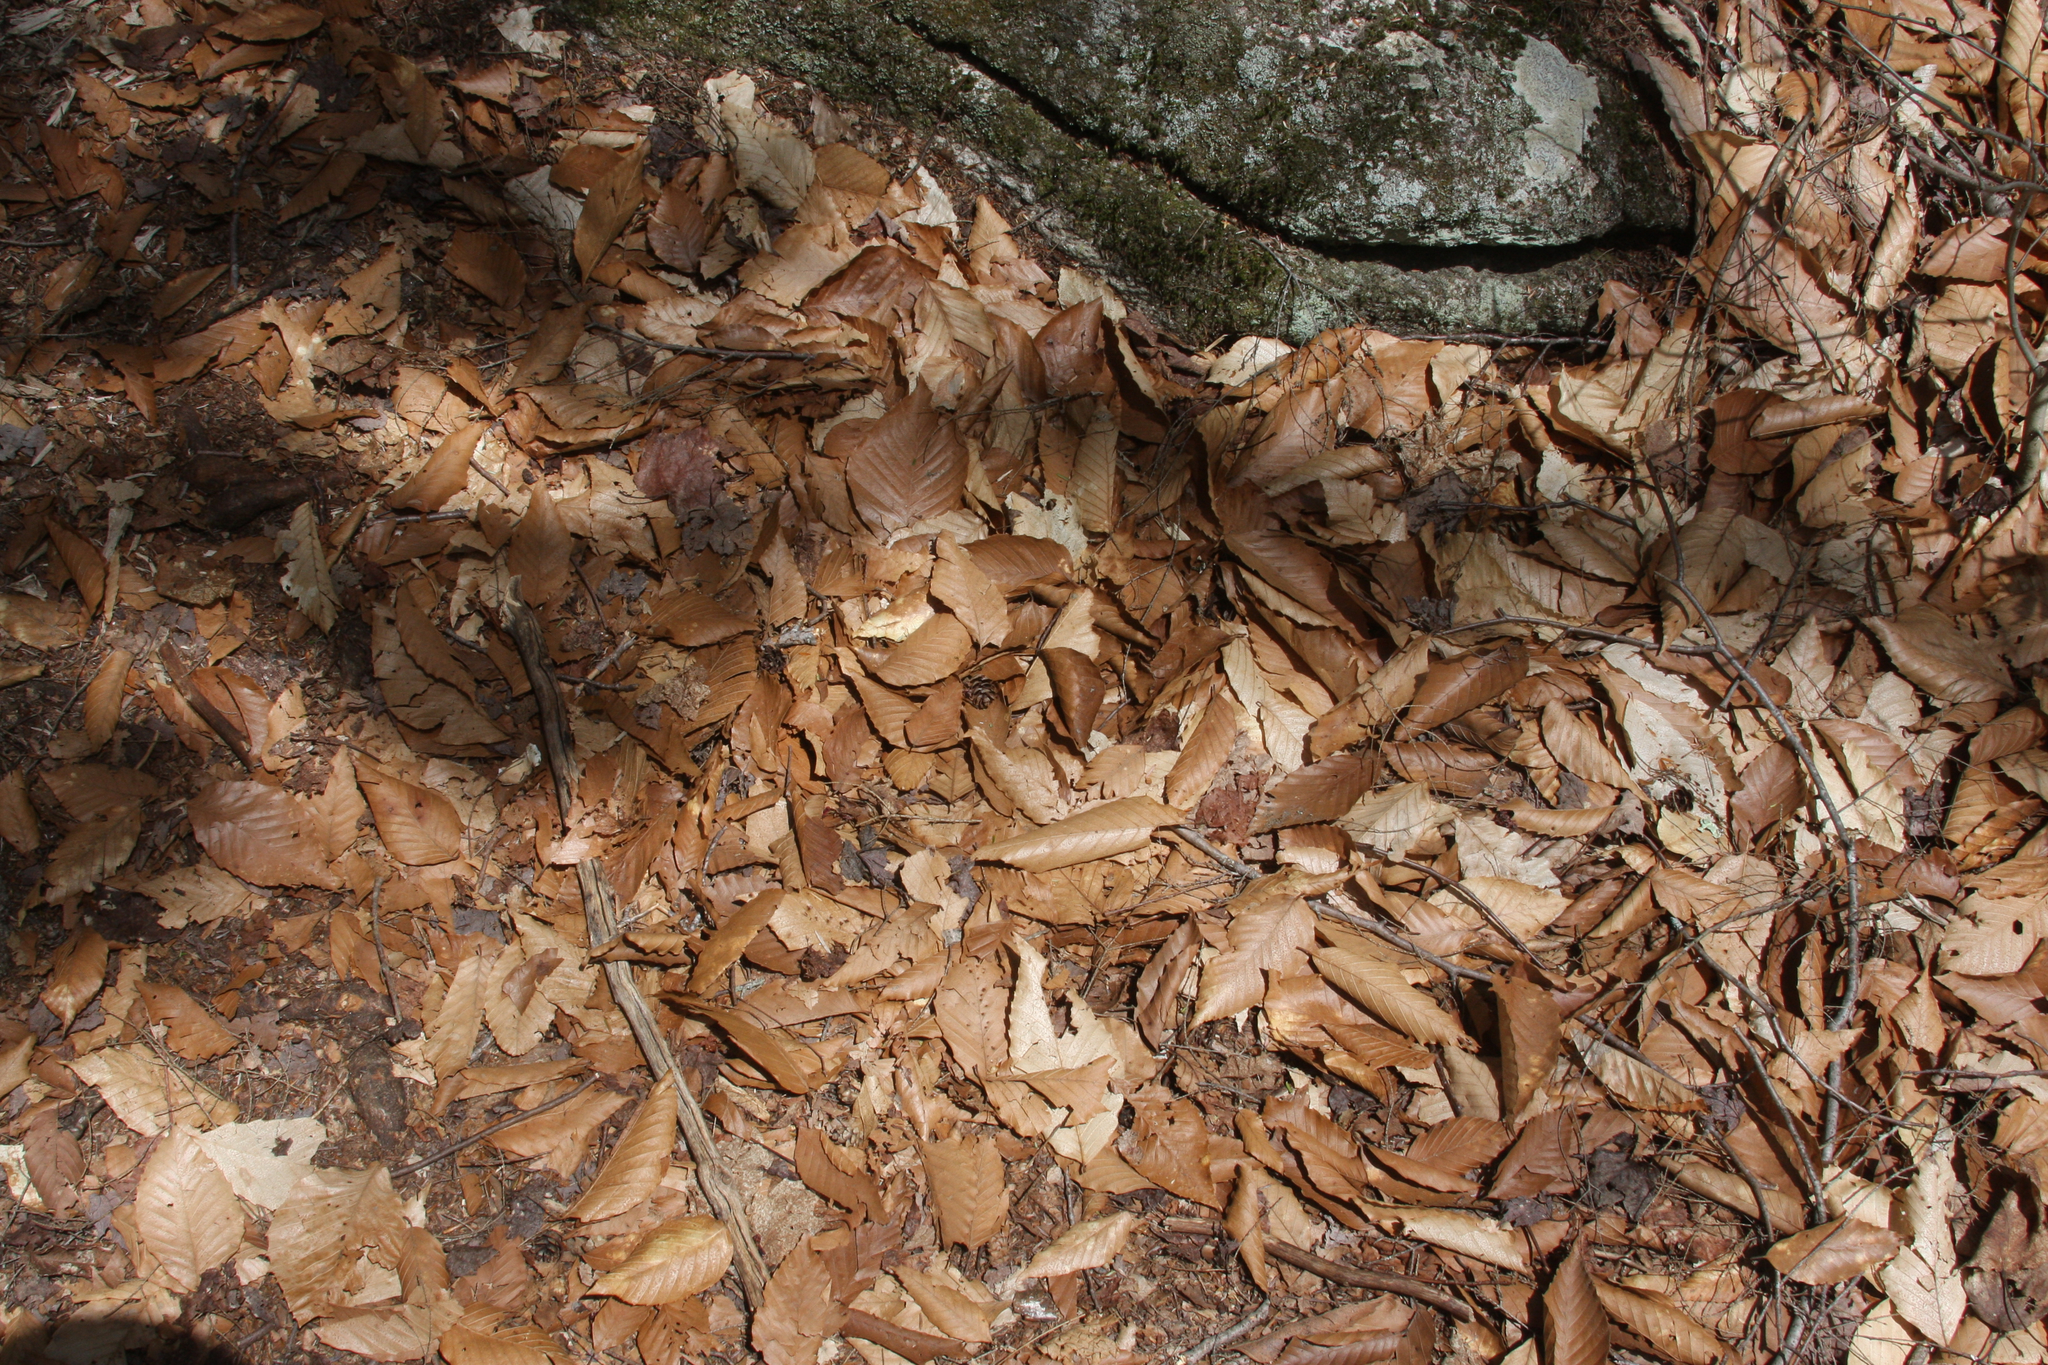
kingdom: Plantae
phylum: Tracheophyta
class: Magnoliopsida
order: Fagales
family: Fagaceae
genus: Fagus
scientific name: Fagus grandifolia
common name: American beech
